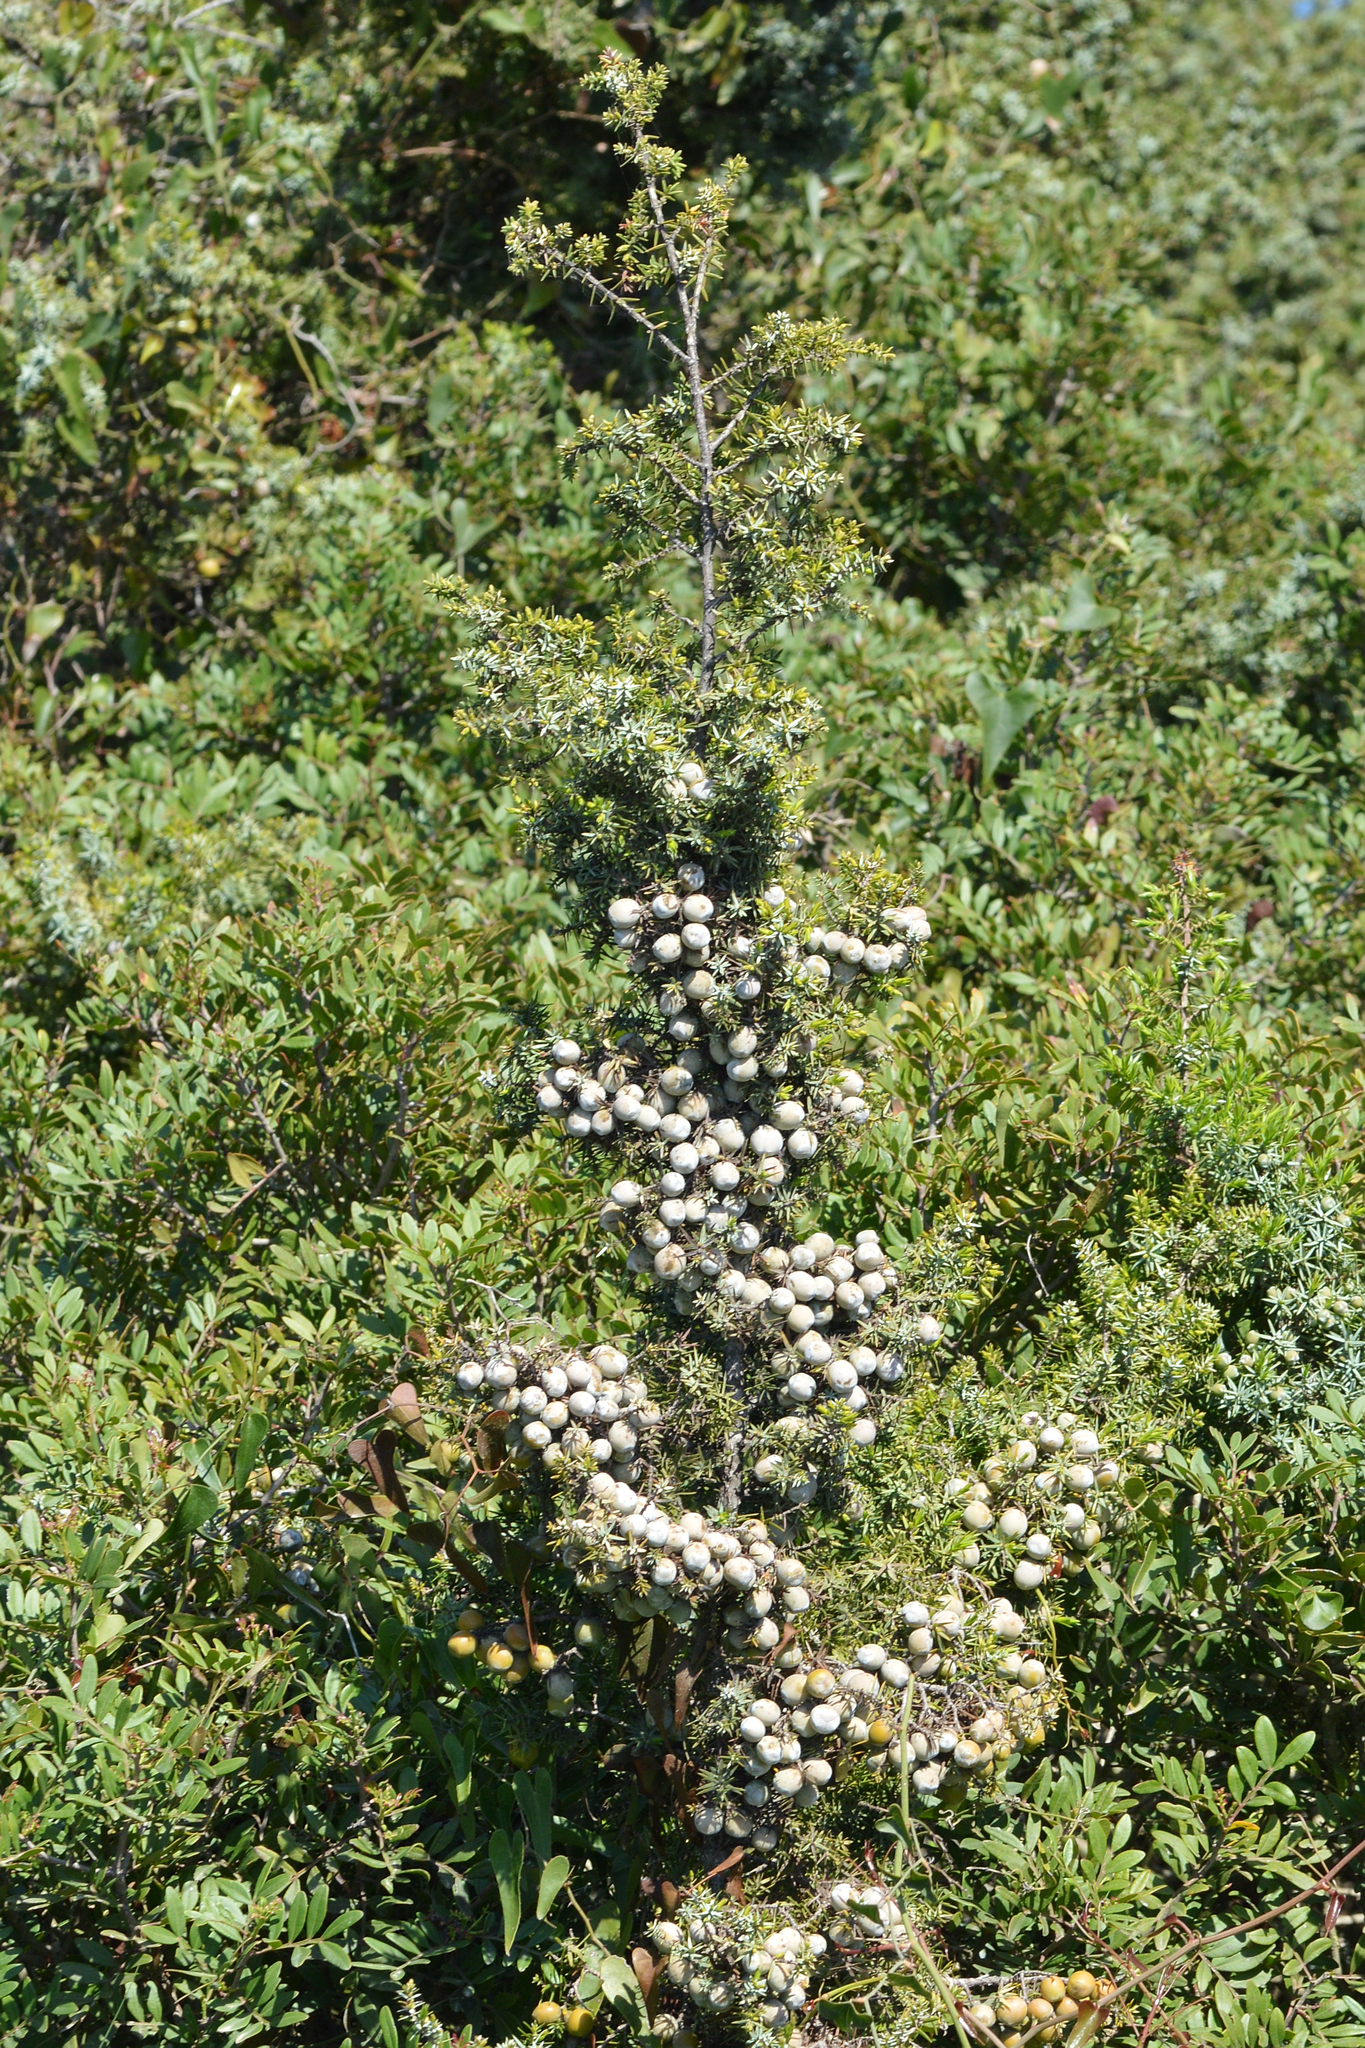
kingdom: Plantae
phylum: Tracheophyta
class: Pinopsida
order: Pinales
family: Cupressaceae
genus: Juniperus
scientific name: Juniperus oxycedrus
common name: Prickly juniper
